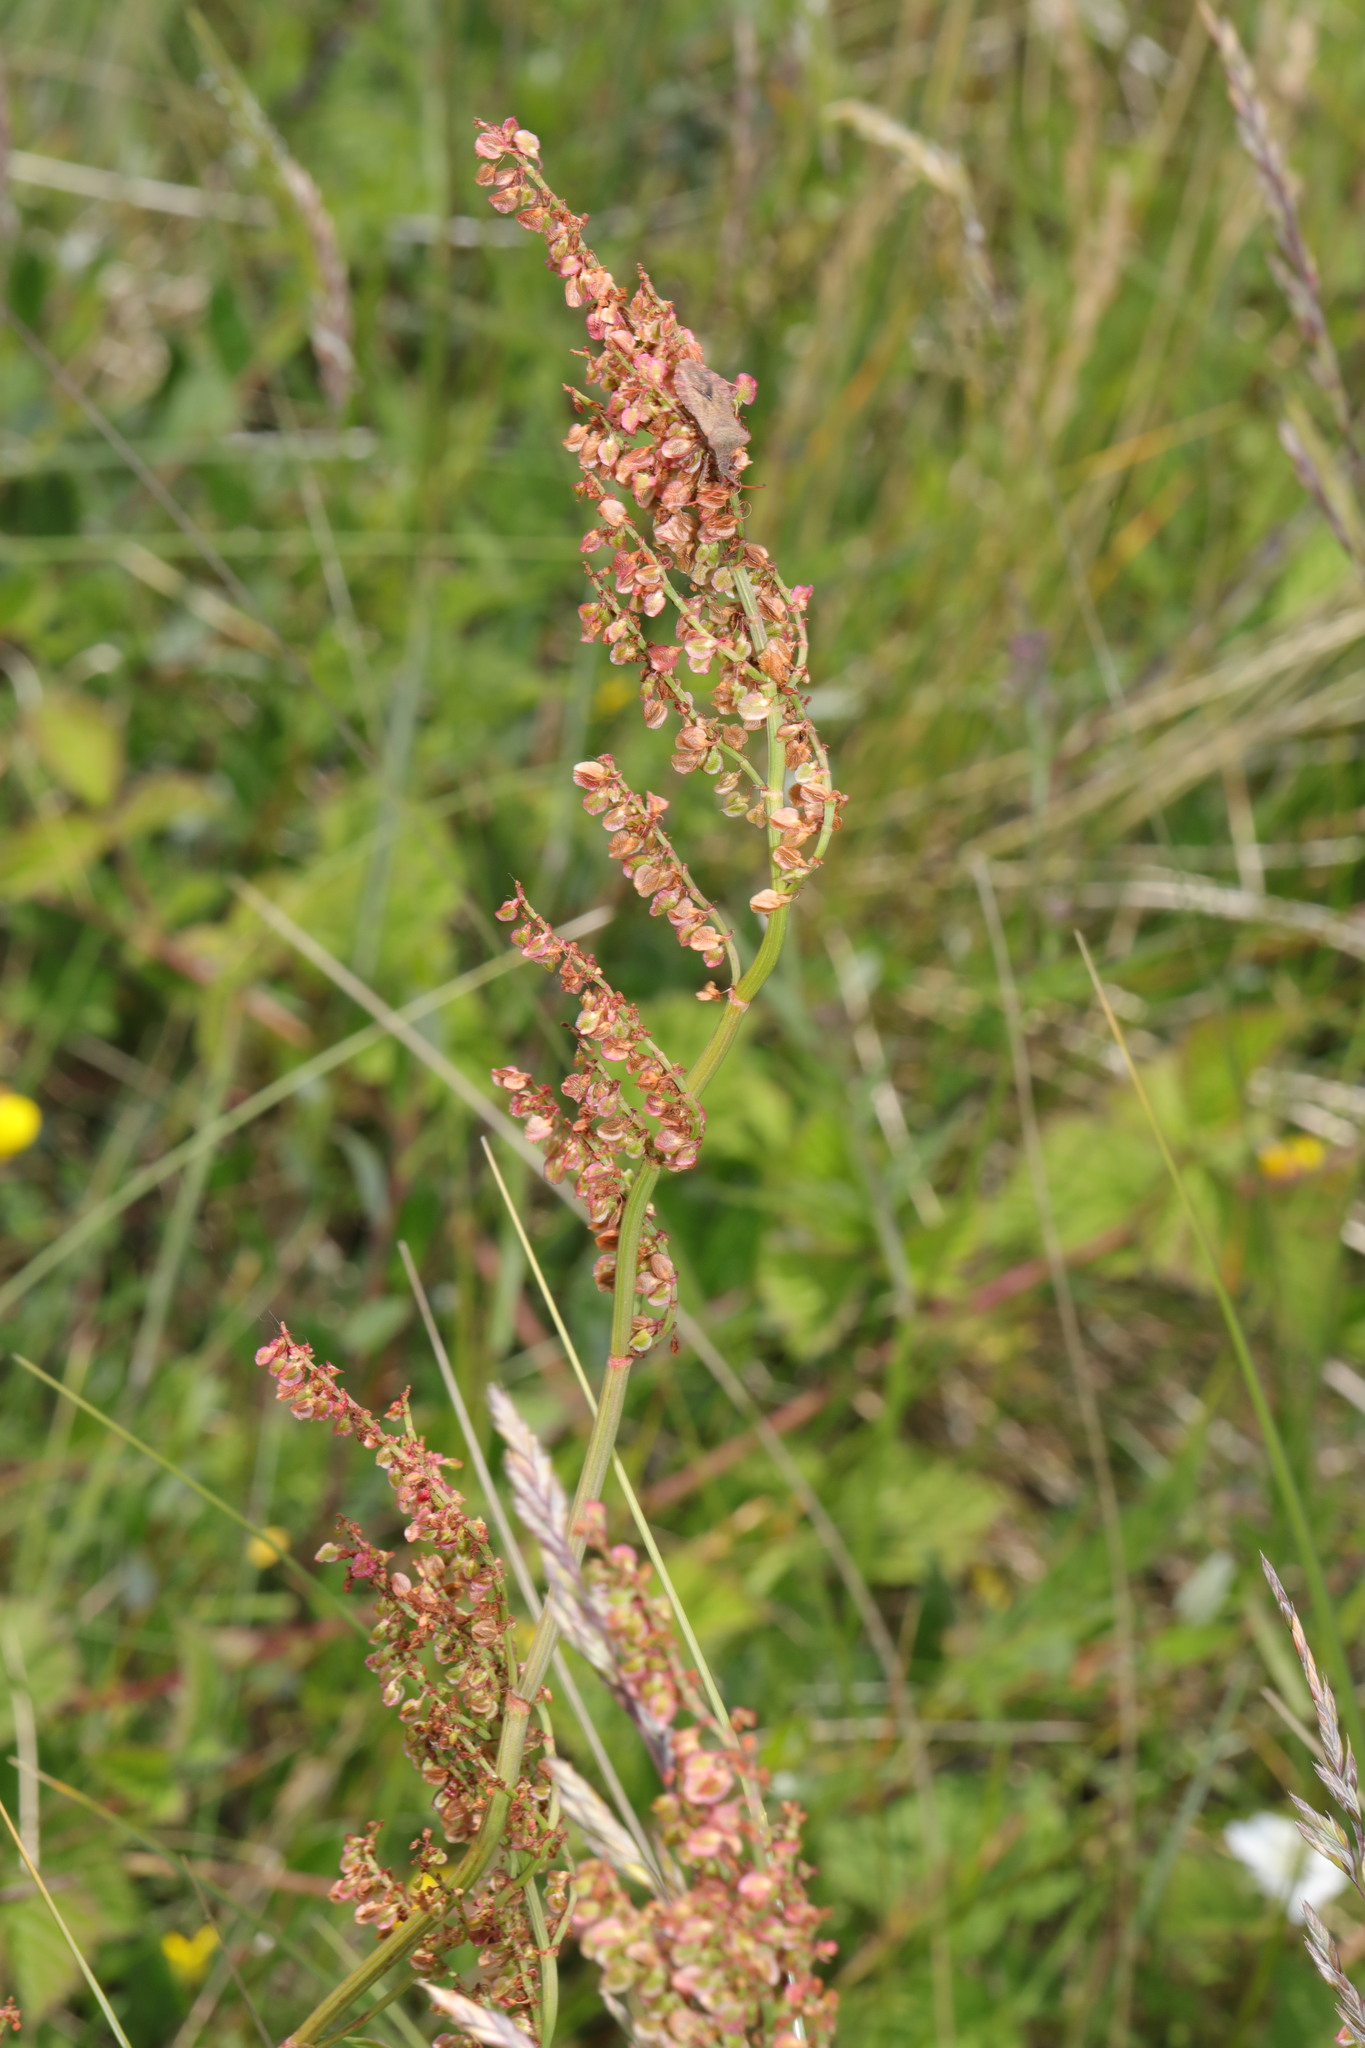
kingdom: Plantae
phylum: Tracheophyta
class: Magnoliopsida
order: Caryophyllales
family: Polygonaceae
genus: Rumex
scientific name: Rumex acetosa
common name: Garden sorrel
